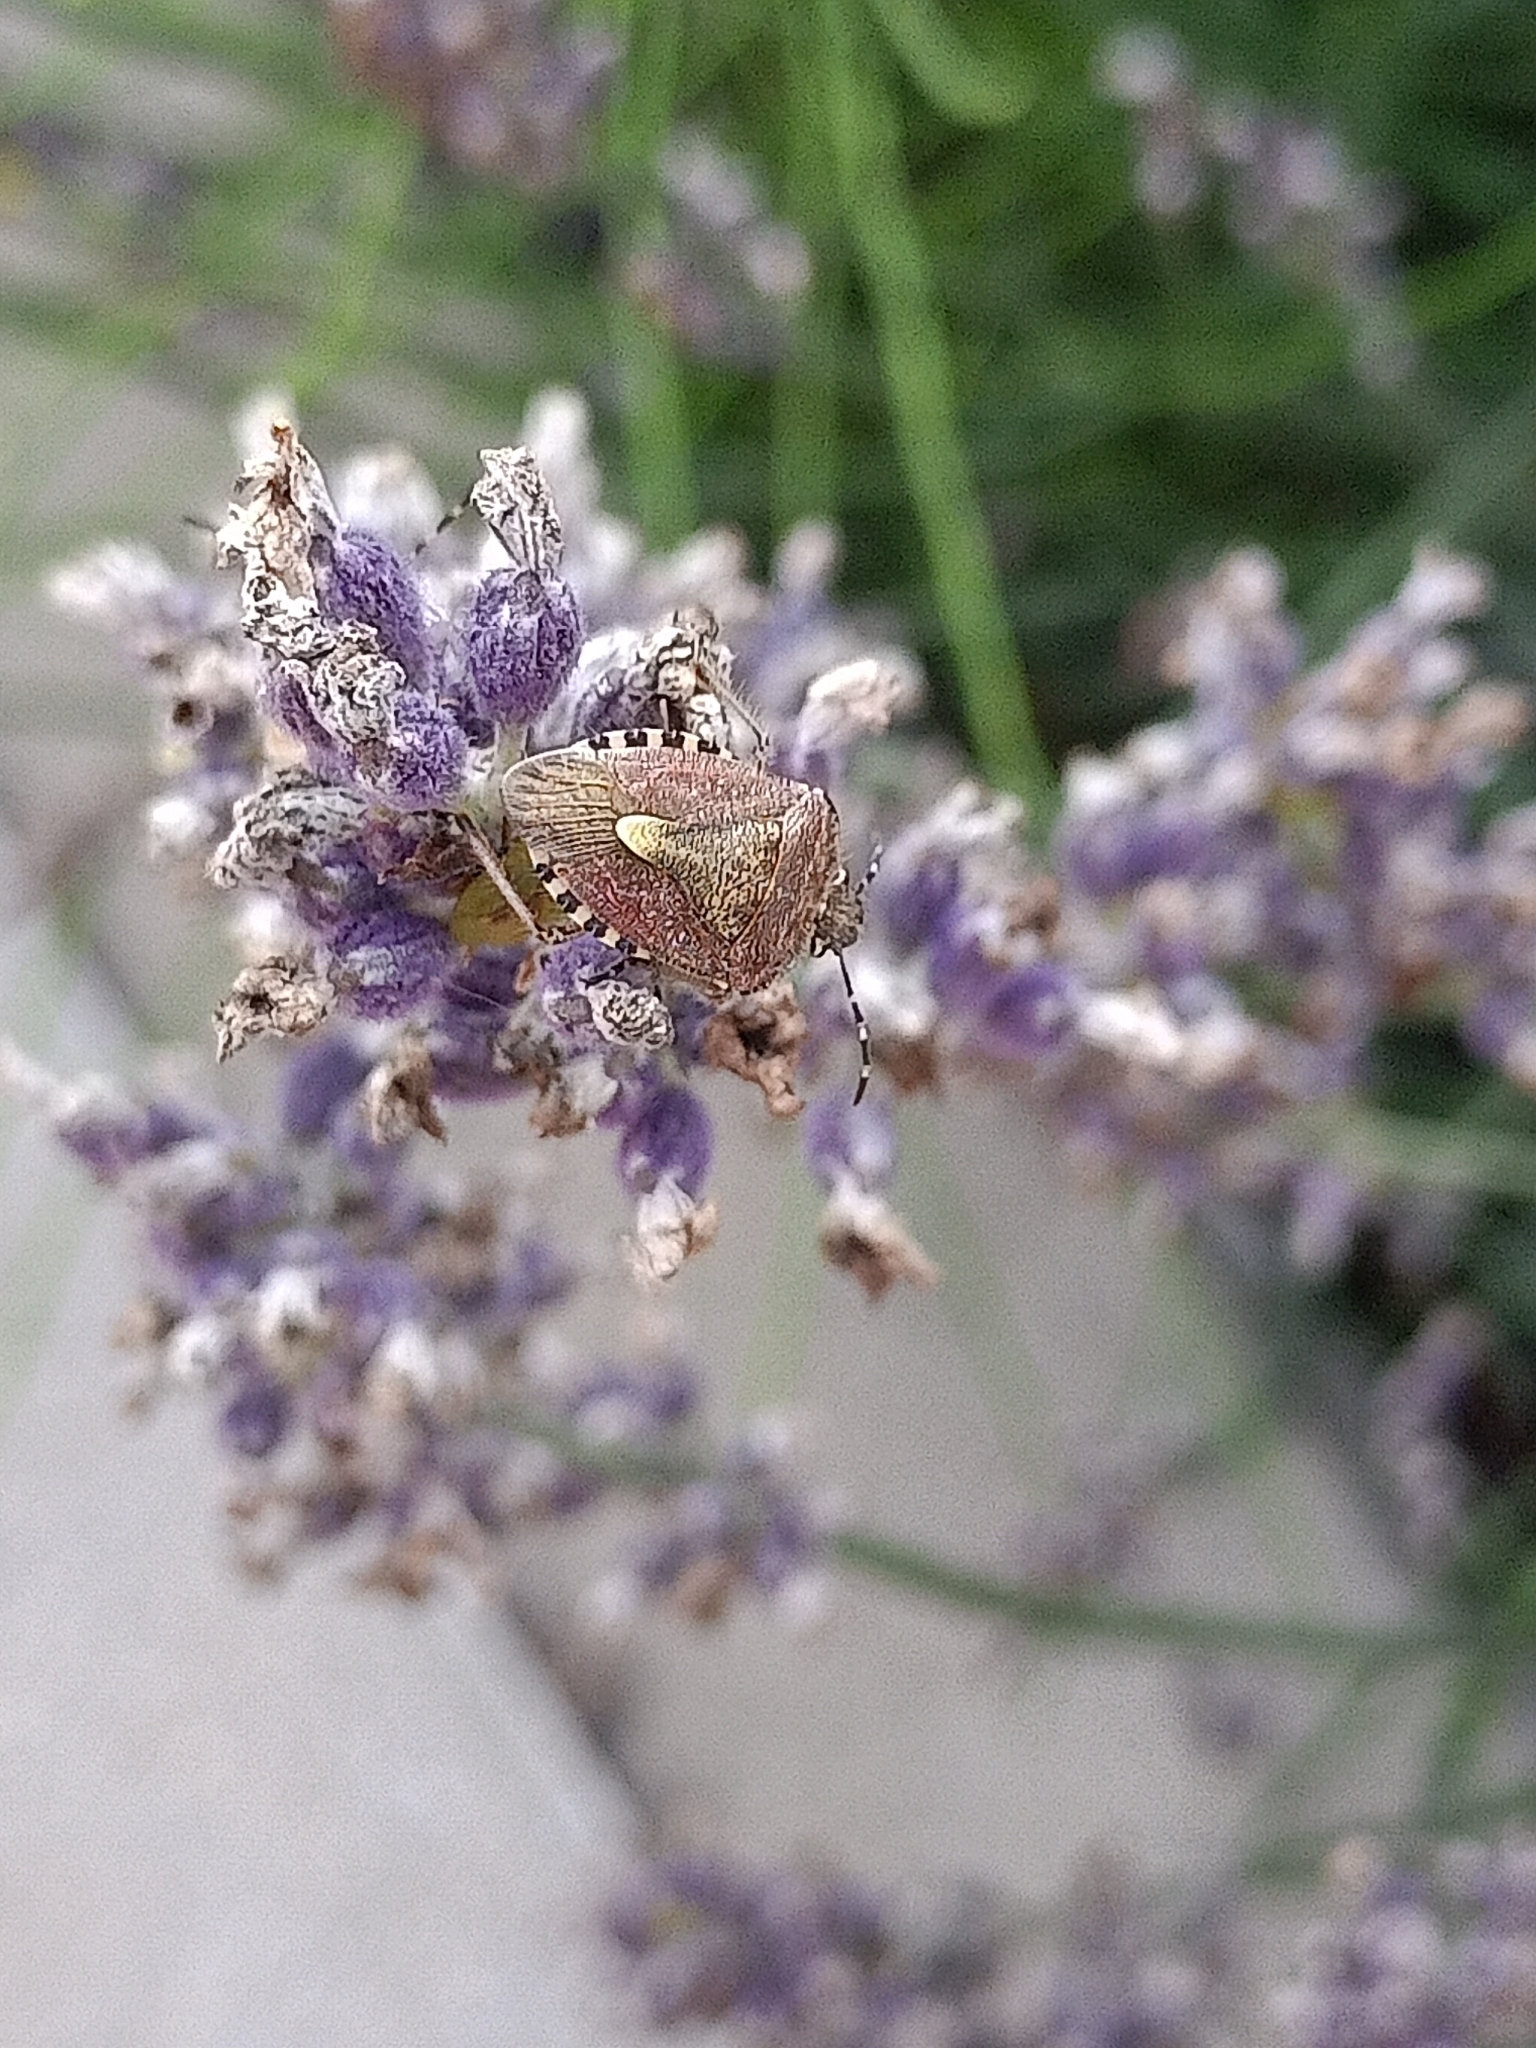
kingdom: Animalia
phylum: Arthropoda
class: Insecta
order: Hemiptera
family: Pentatomidae
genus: Dolycoris
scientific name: Dolycoris baccarum
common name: Sloe bug
